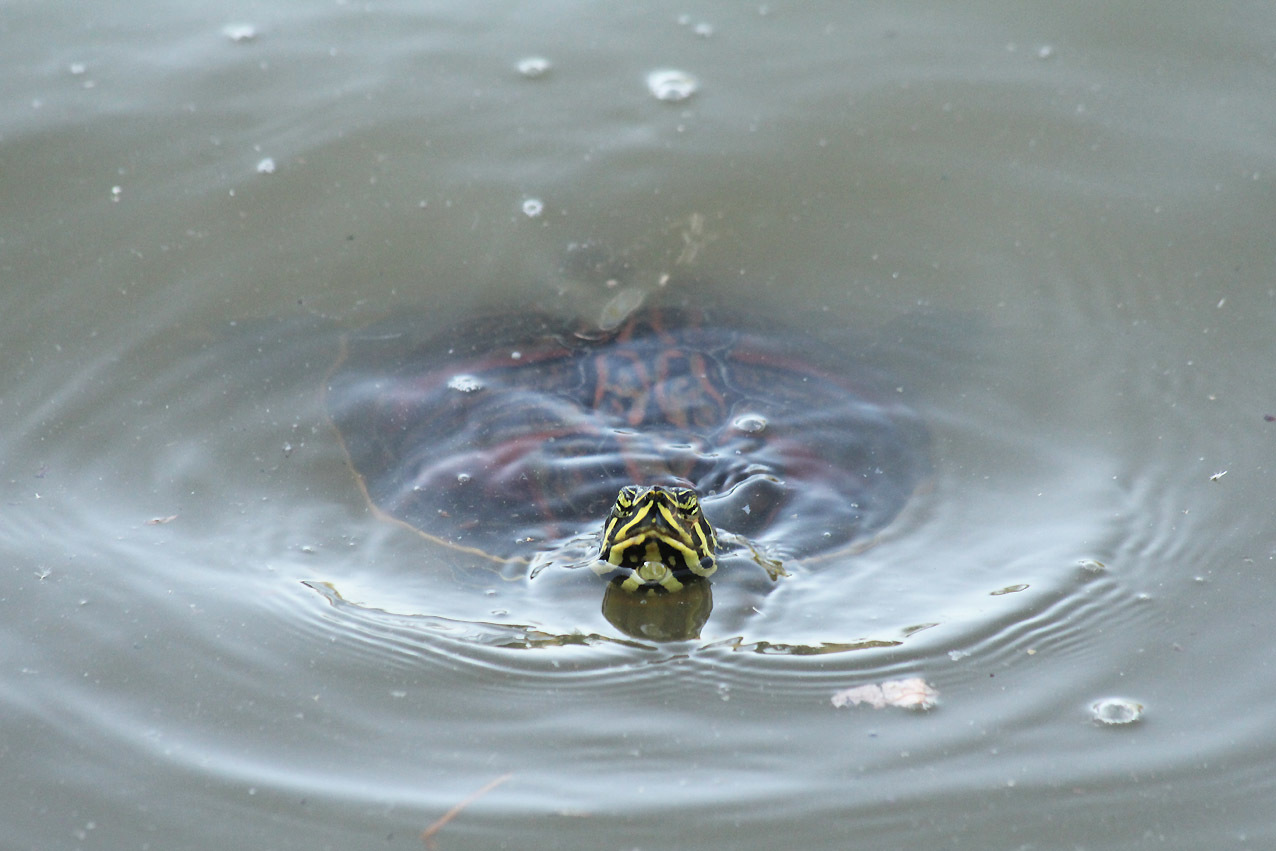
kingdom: Animalia
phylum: Chordata
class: Testudines
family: Emydidae
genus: Pseudemys
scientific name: Pseudemys nelsoni
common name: Florida red-bellied turtle
